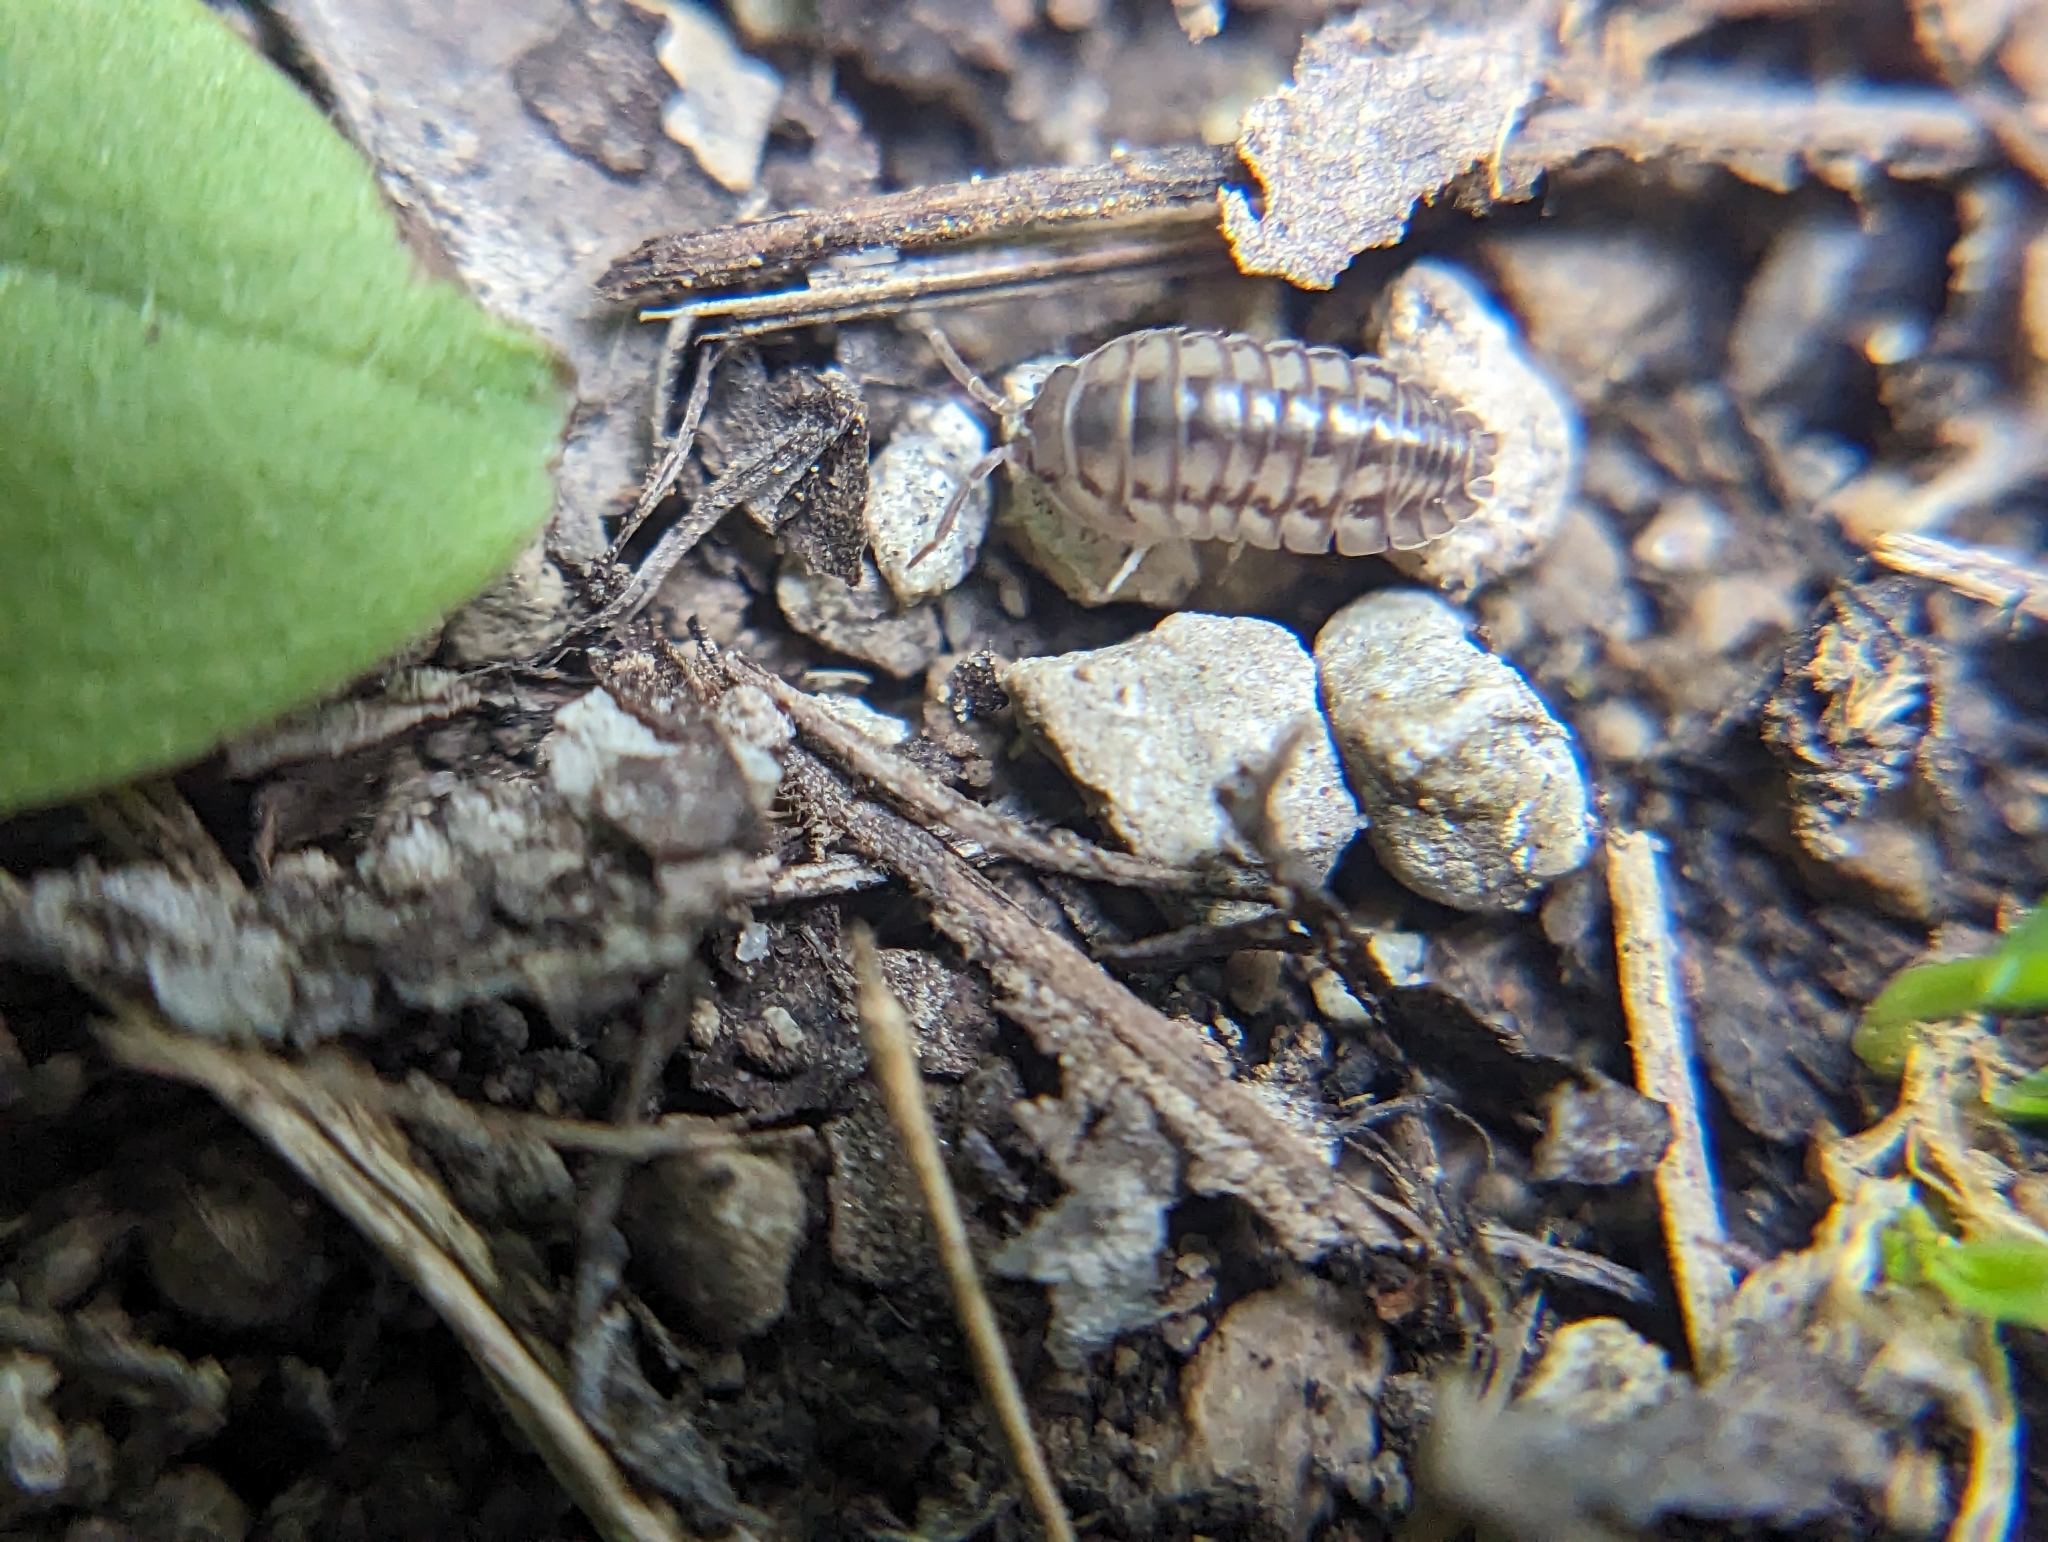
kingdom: Animalia
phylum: Arthropoda
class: Malacostraca
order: Isopoda
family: Armadillidiidae
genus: Armadillidium
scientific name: Armadillidium nasatum
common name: Isopod
